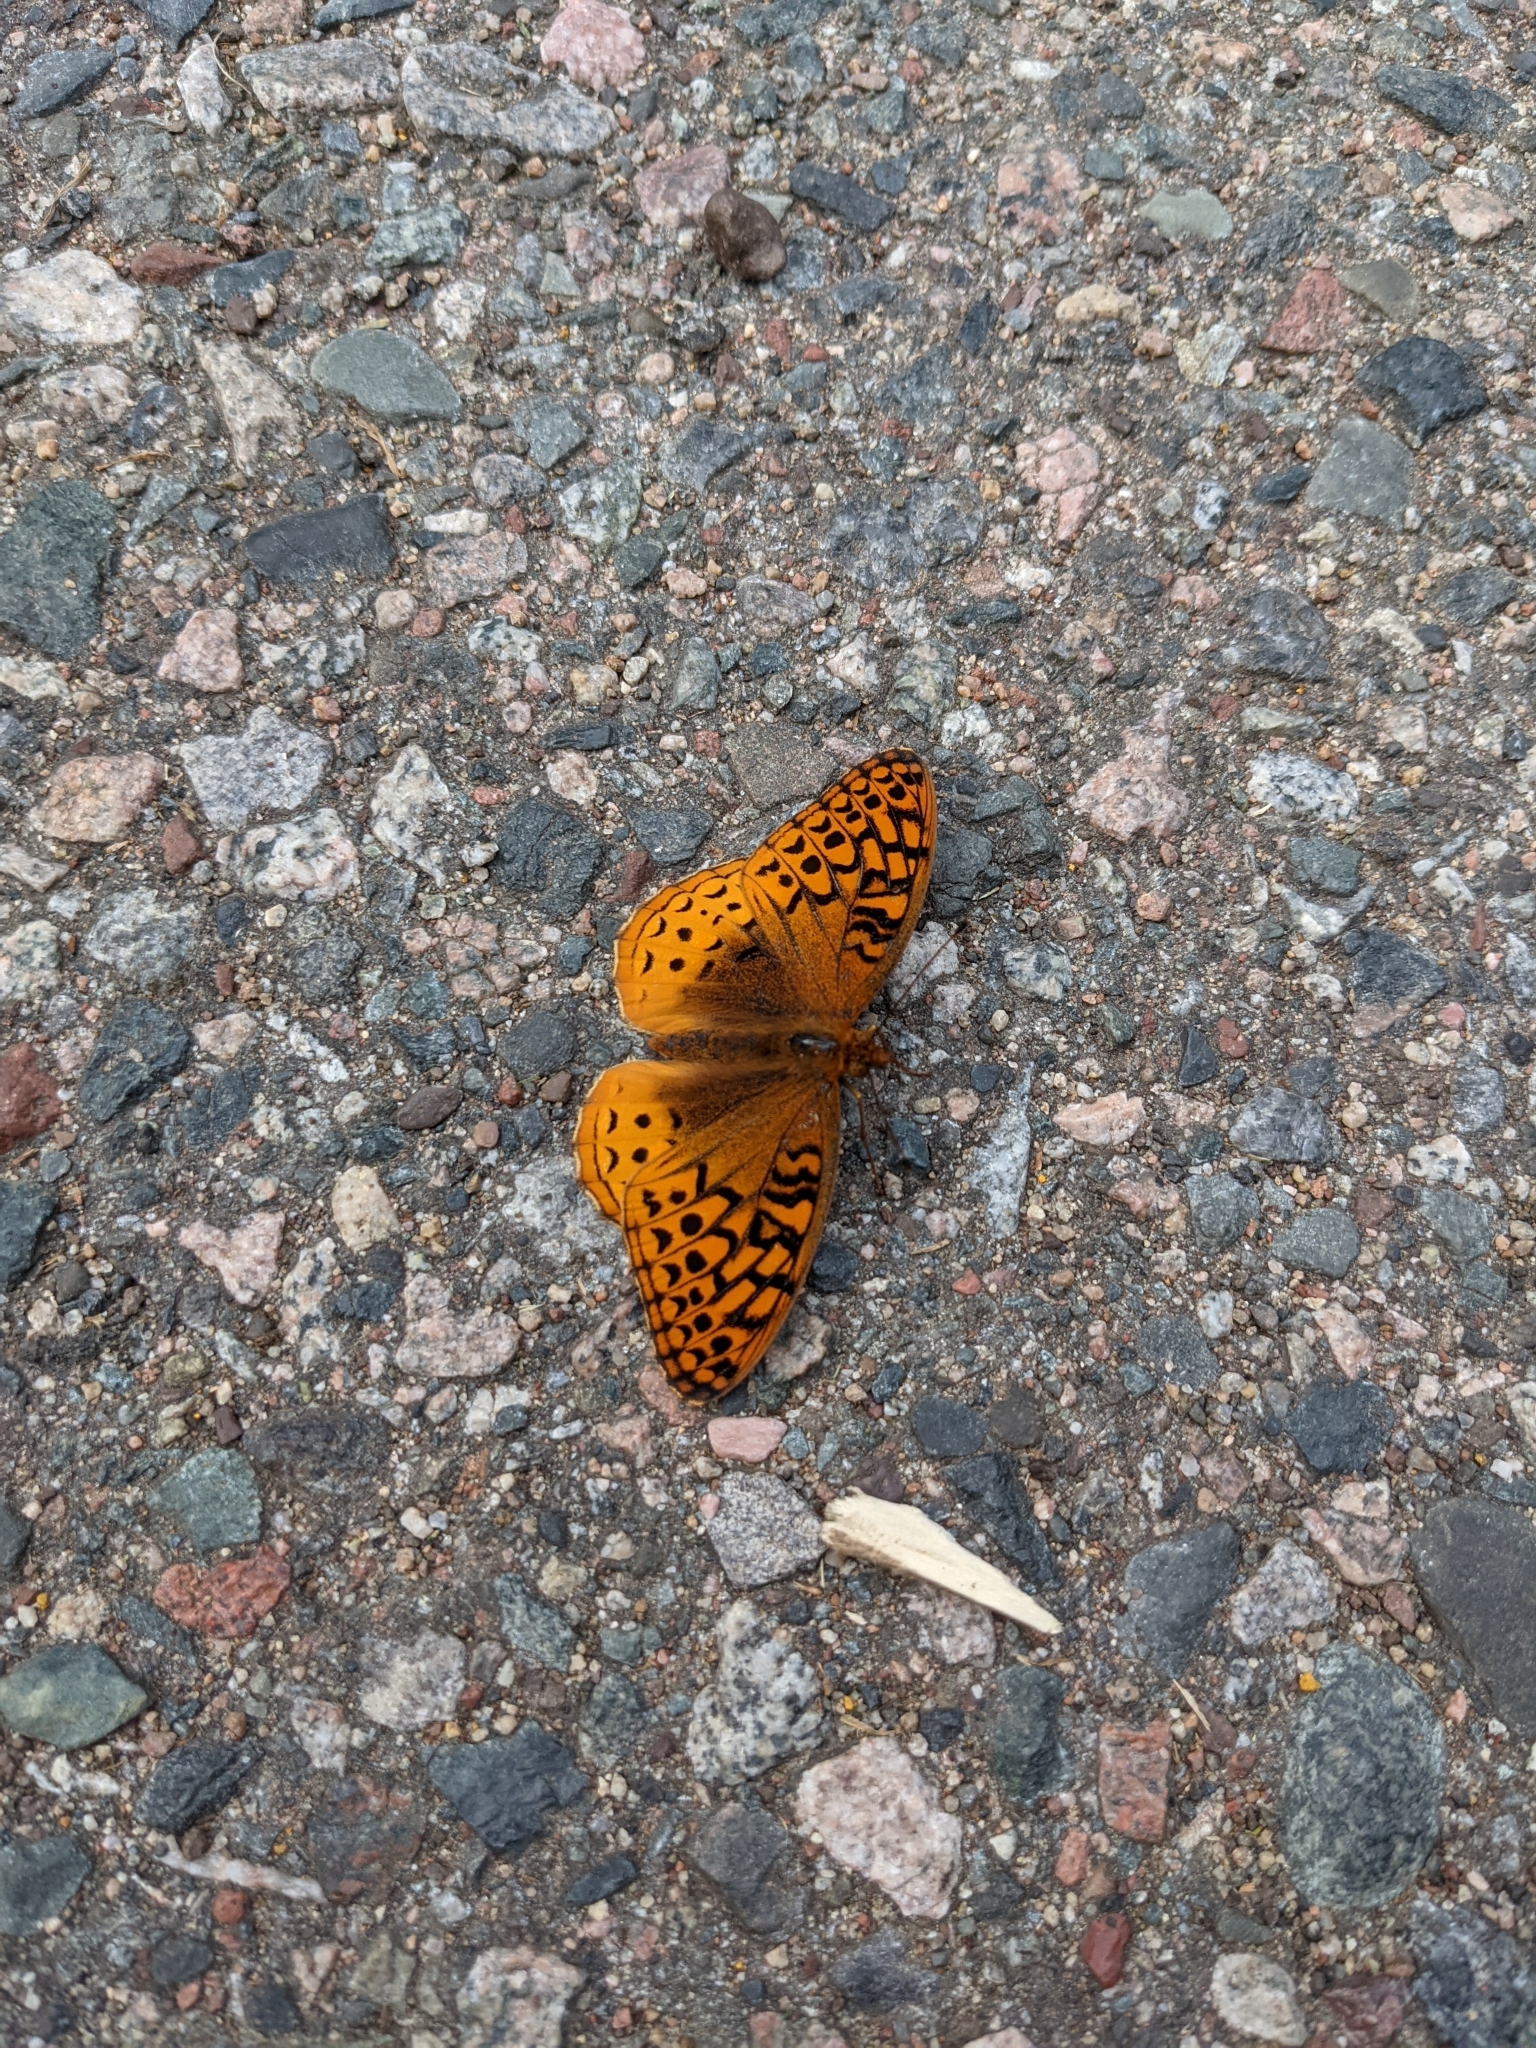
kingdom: Animalia
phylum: Arthropoda
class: Insecta
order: Lepidoptera
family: Nymphalidae
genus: Speyeria
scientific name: Speyeria cybele
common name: Great spangled fritillary
